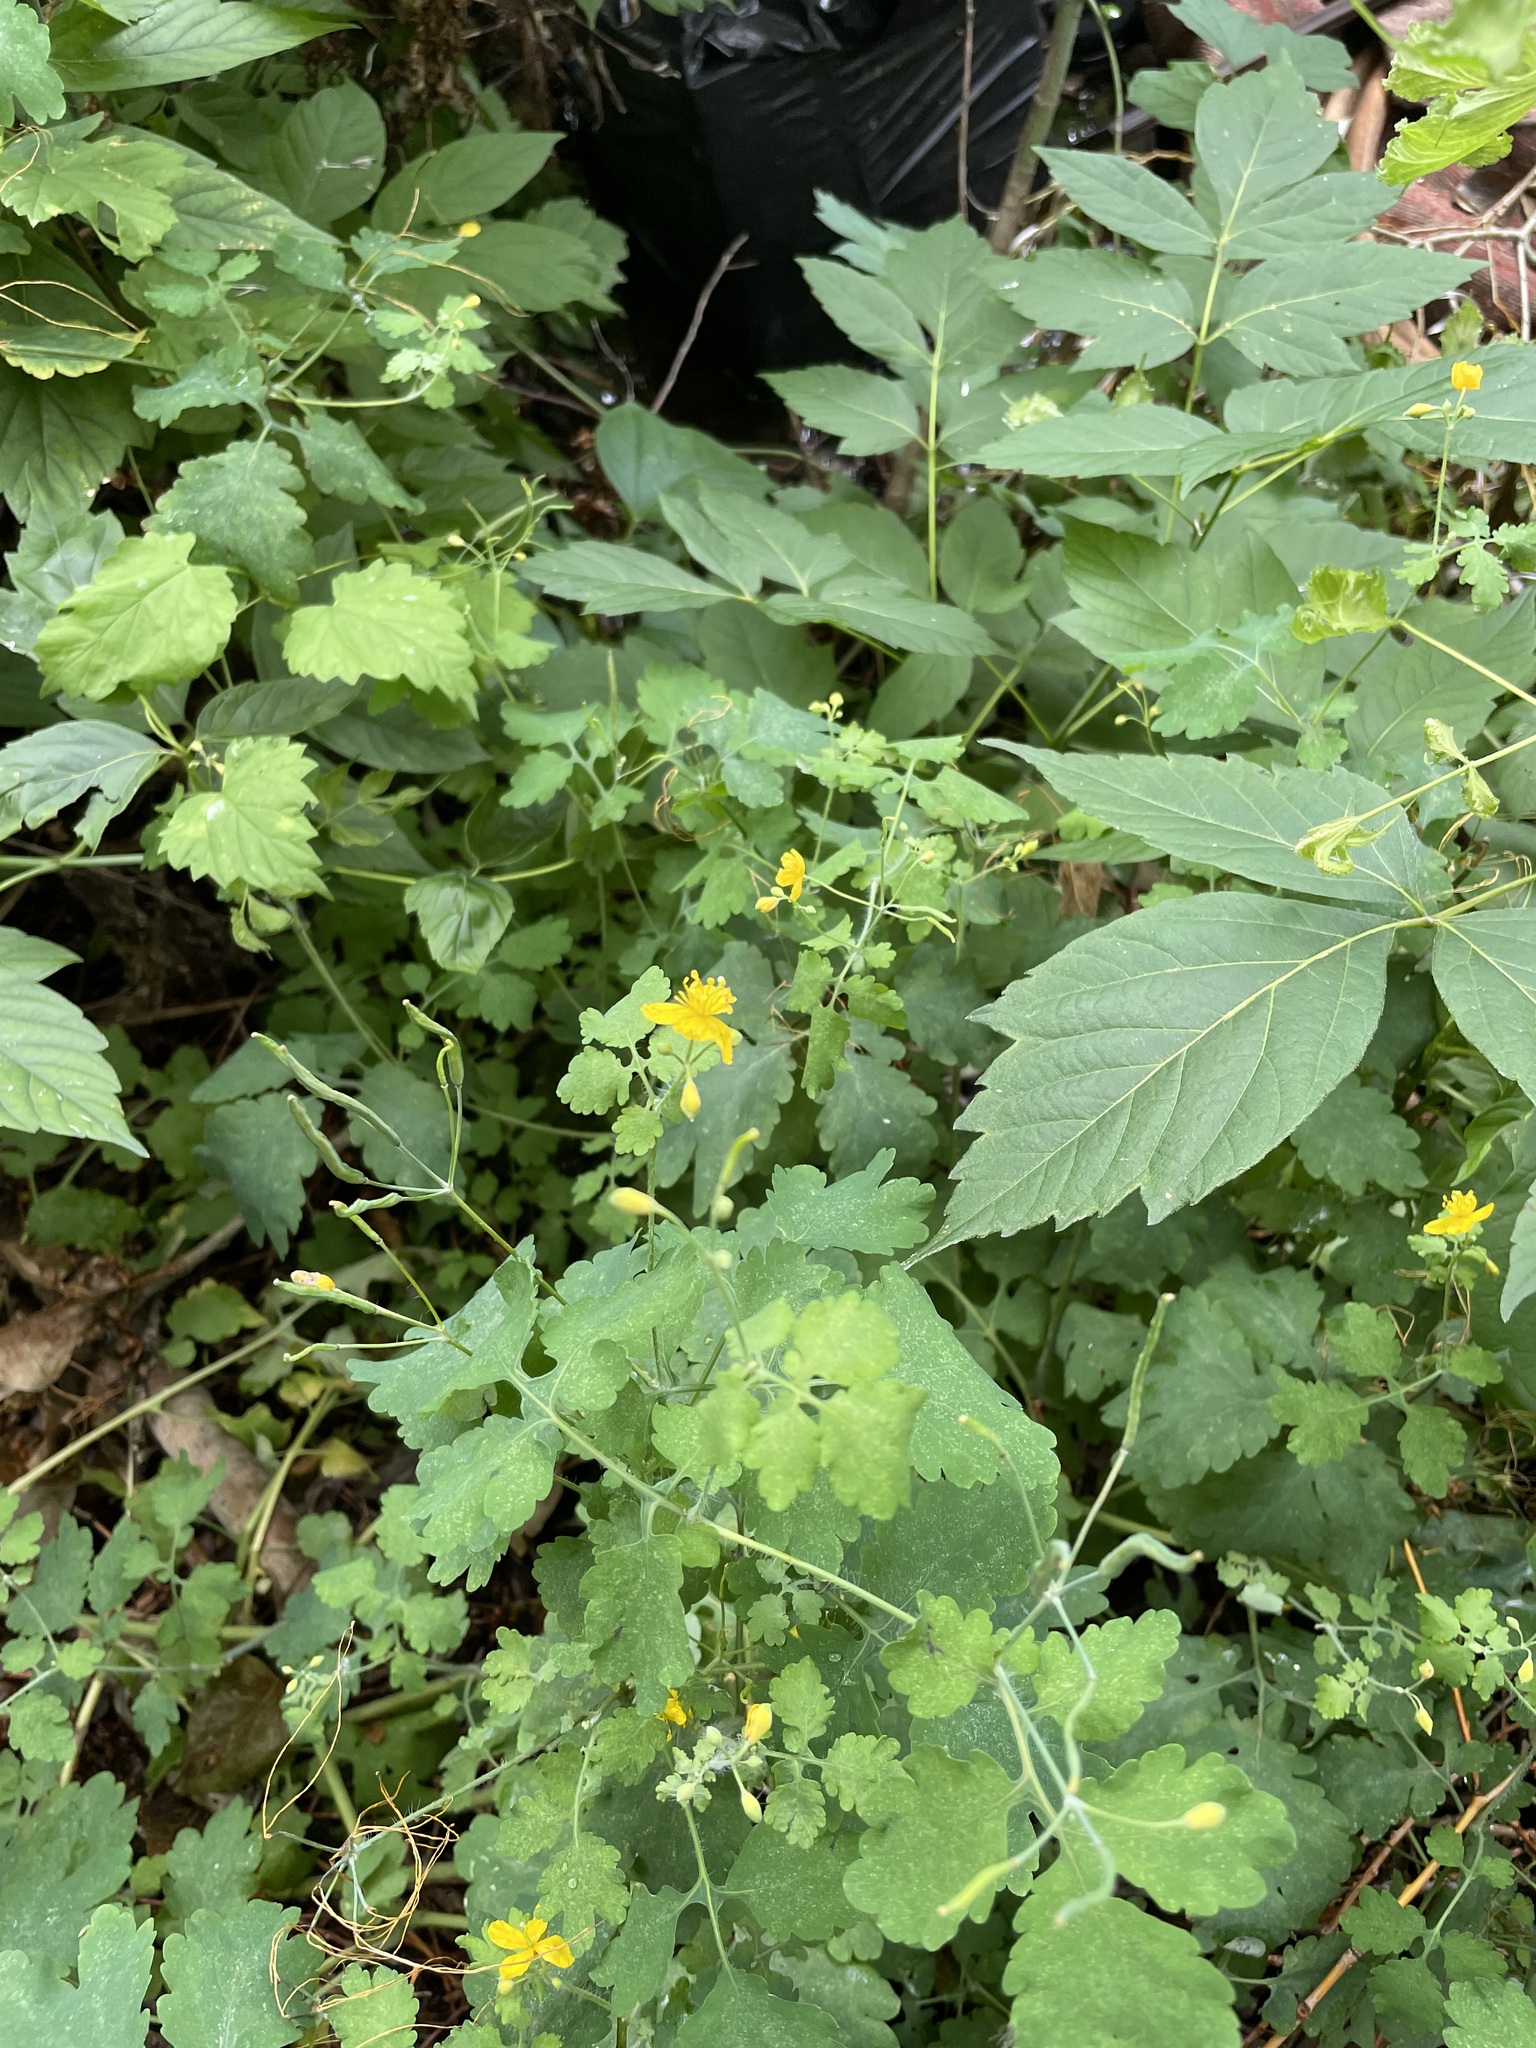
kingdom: Plantae
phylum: Tracheophyta
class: Magnoliopsida
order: Ranunculales
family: Papaveraceae
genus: Chelidonium
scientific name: Chelidonium majus
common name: Greater celandine
